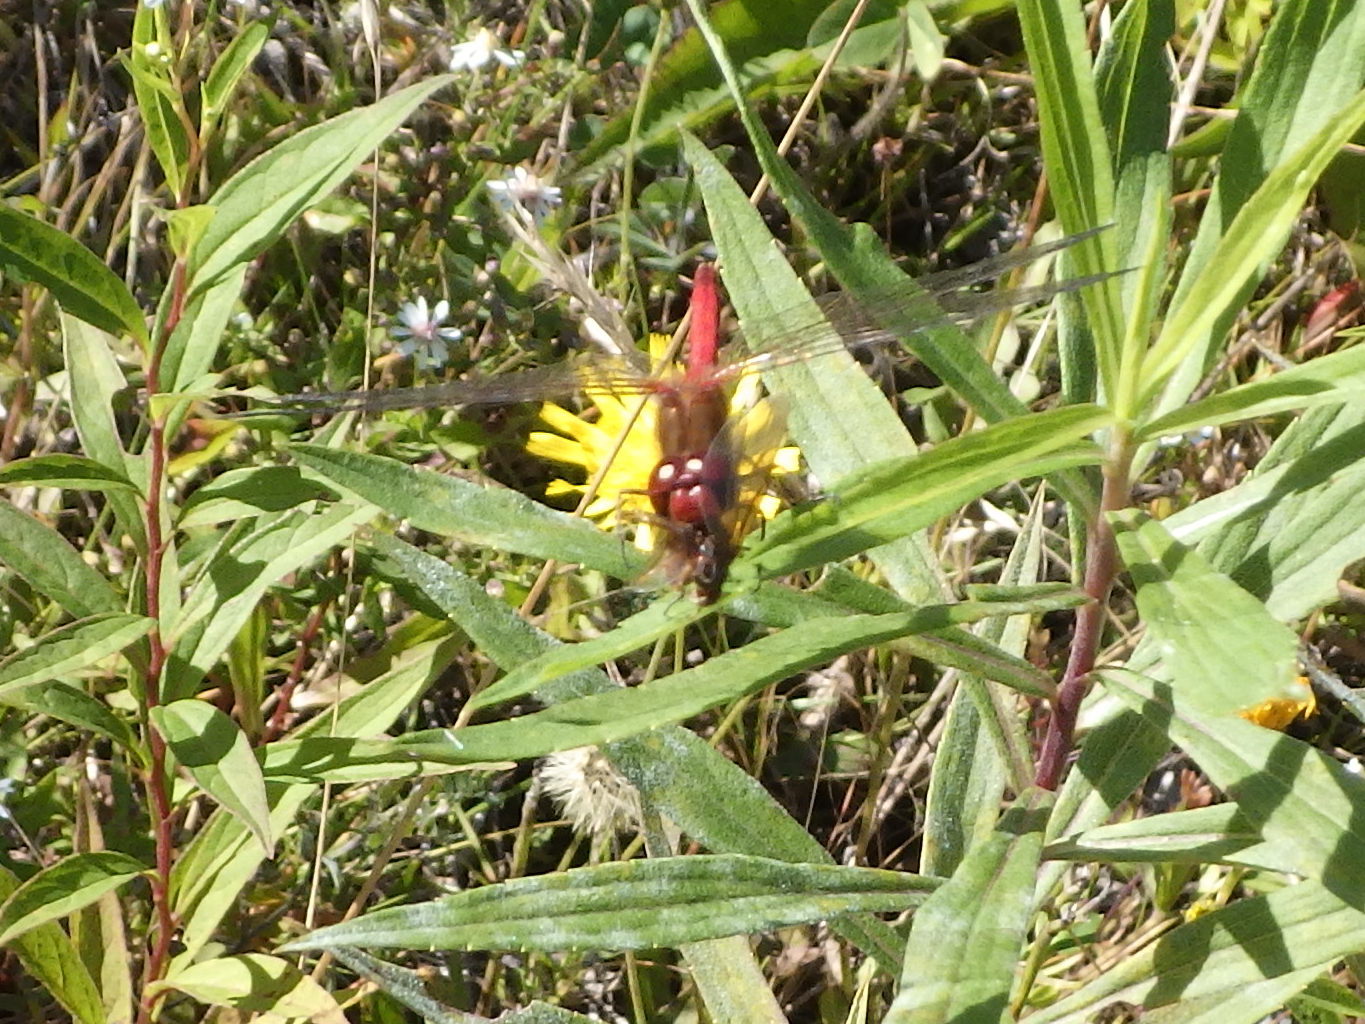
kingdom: Animalia
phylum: Arthropoda
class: Insecta
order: Odonata
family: Libellulidae
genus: Sympetrum
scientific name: Sympetrum vicinum
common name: Autumn meadowhawk
